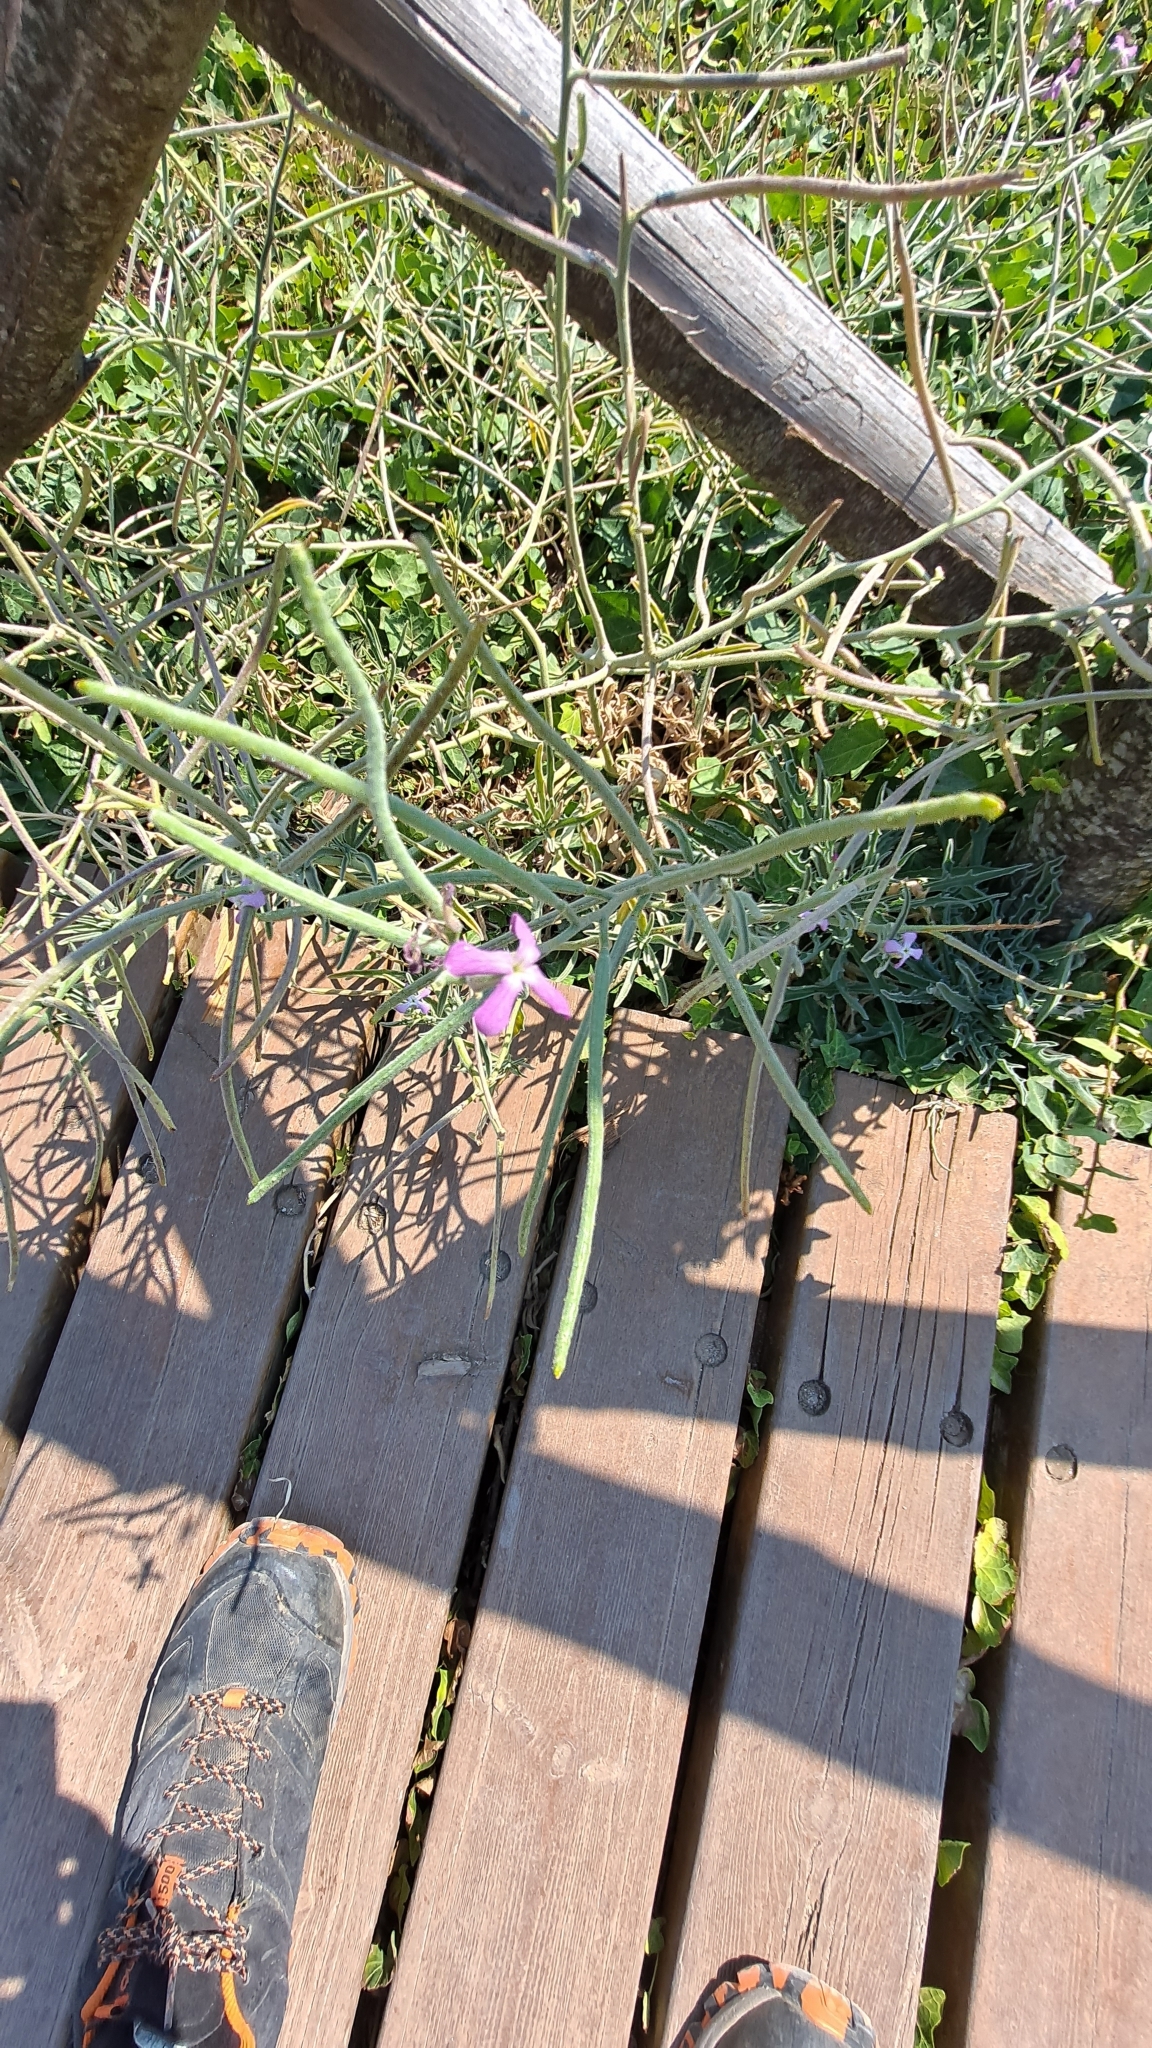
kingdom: Plantae
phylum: Tracheophyta
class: Magnoliopsida
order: Brassicales
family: Brassicaceae
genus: Matthiola
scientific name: Matthiola sinuata
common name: Sea stock
